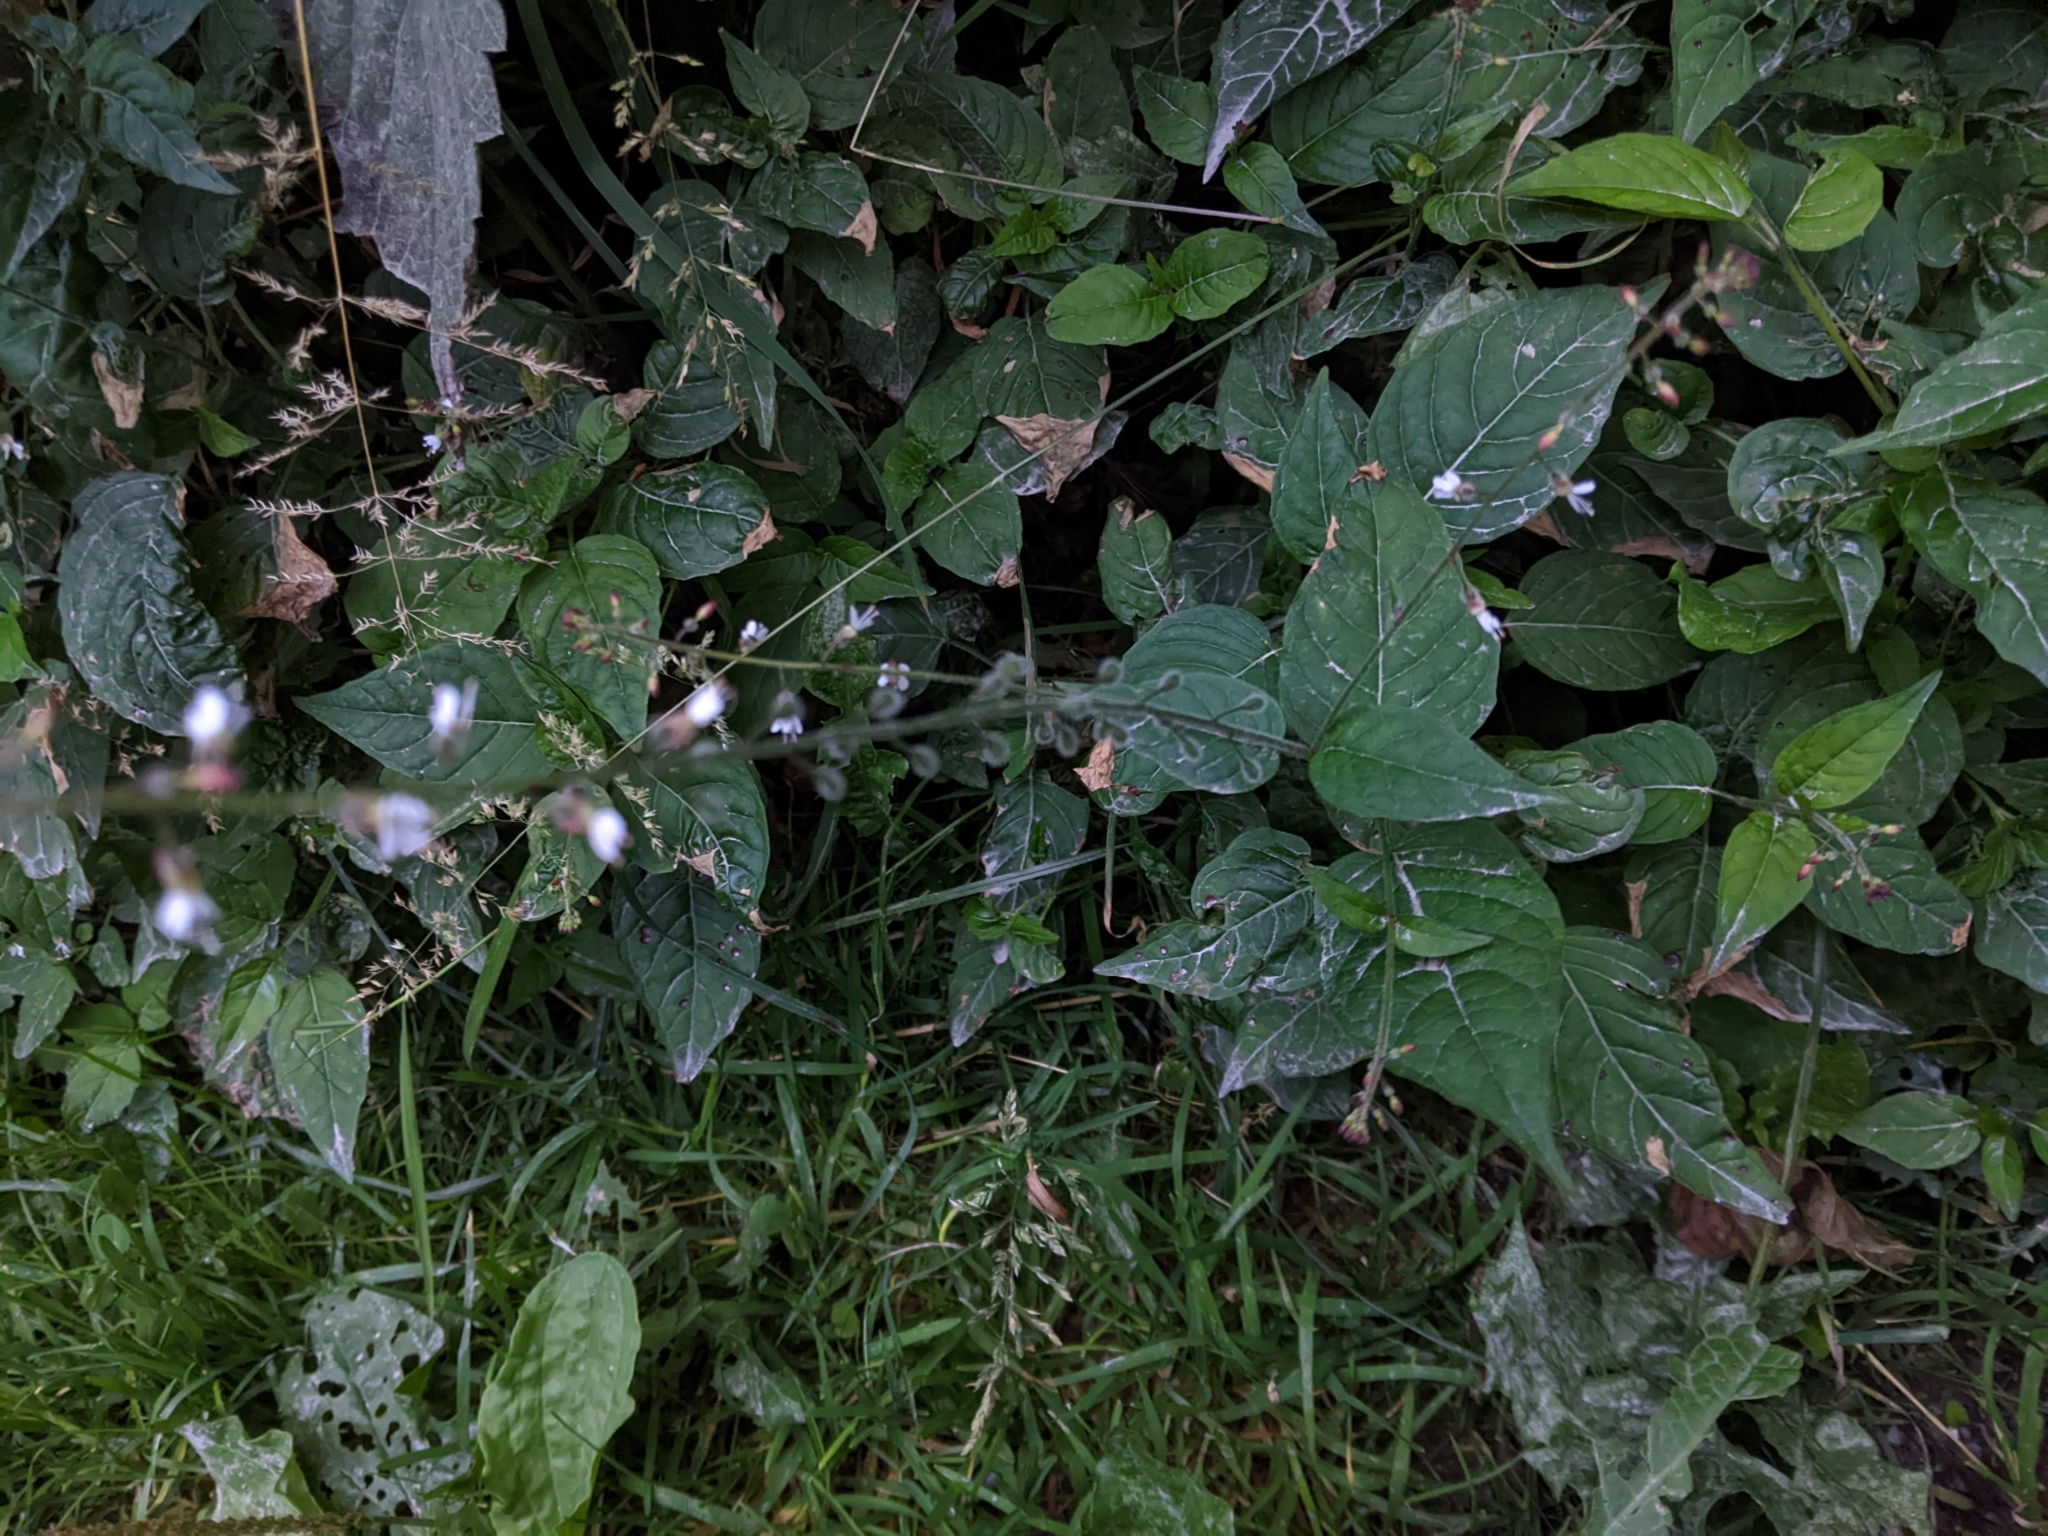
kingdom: Plantae
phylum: Tracheophyta
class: Magnoliopsida
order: Myrtales
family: Onagraceae
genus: Circaea
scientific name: Circaea lutetiana
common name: Enchanter's-nightshade
